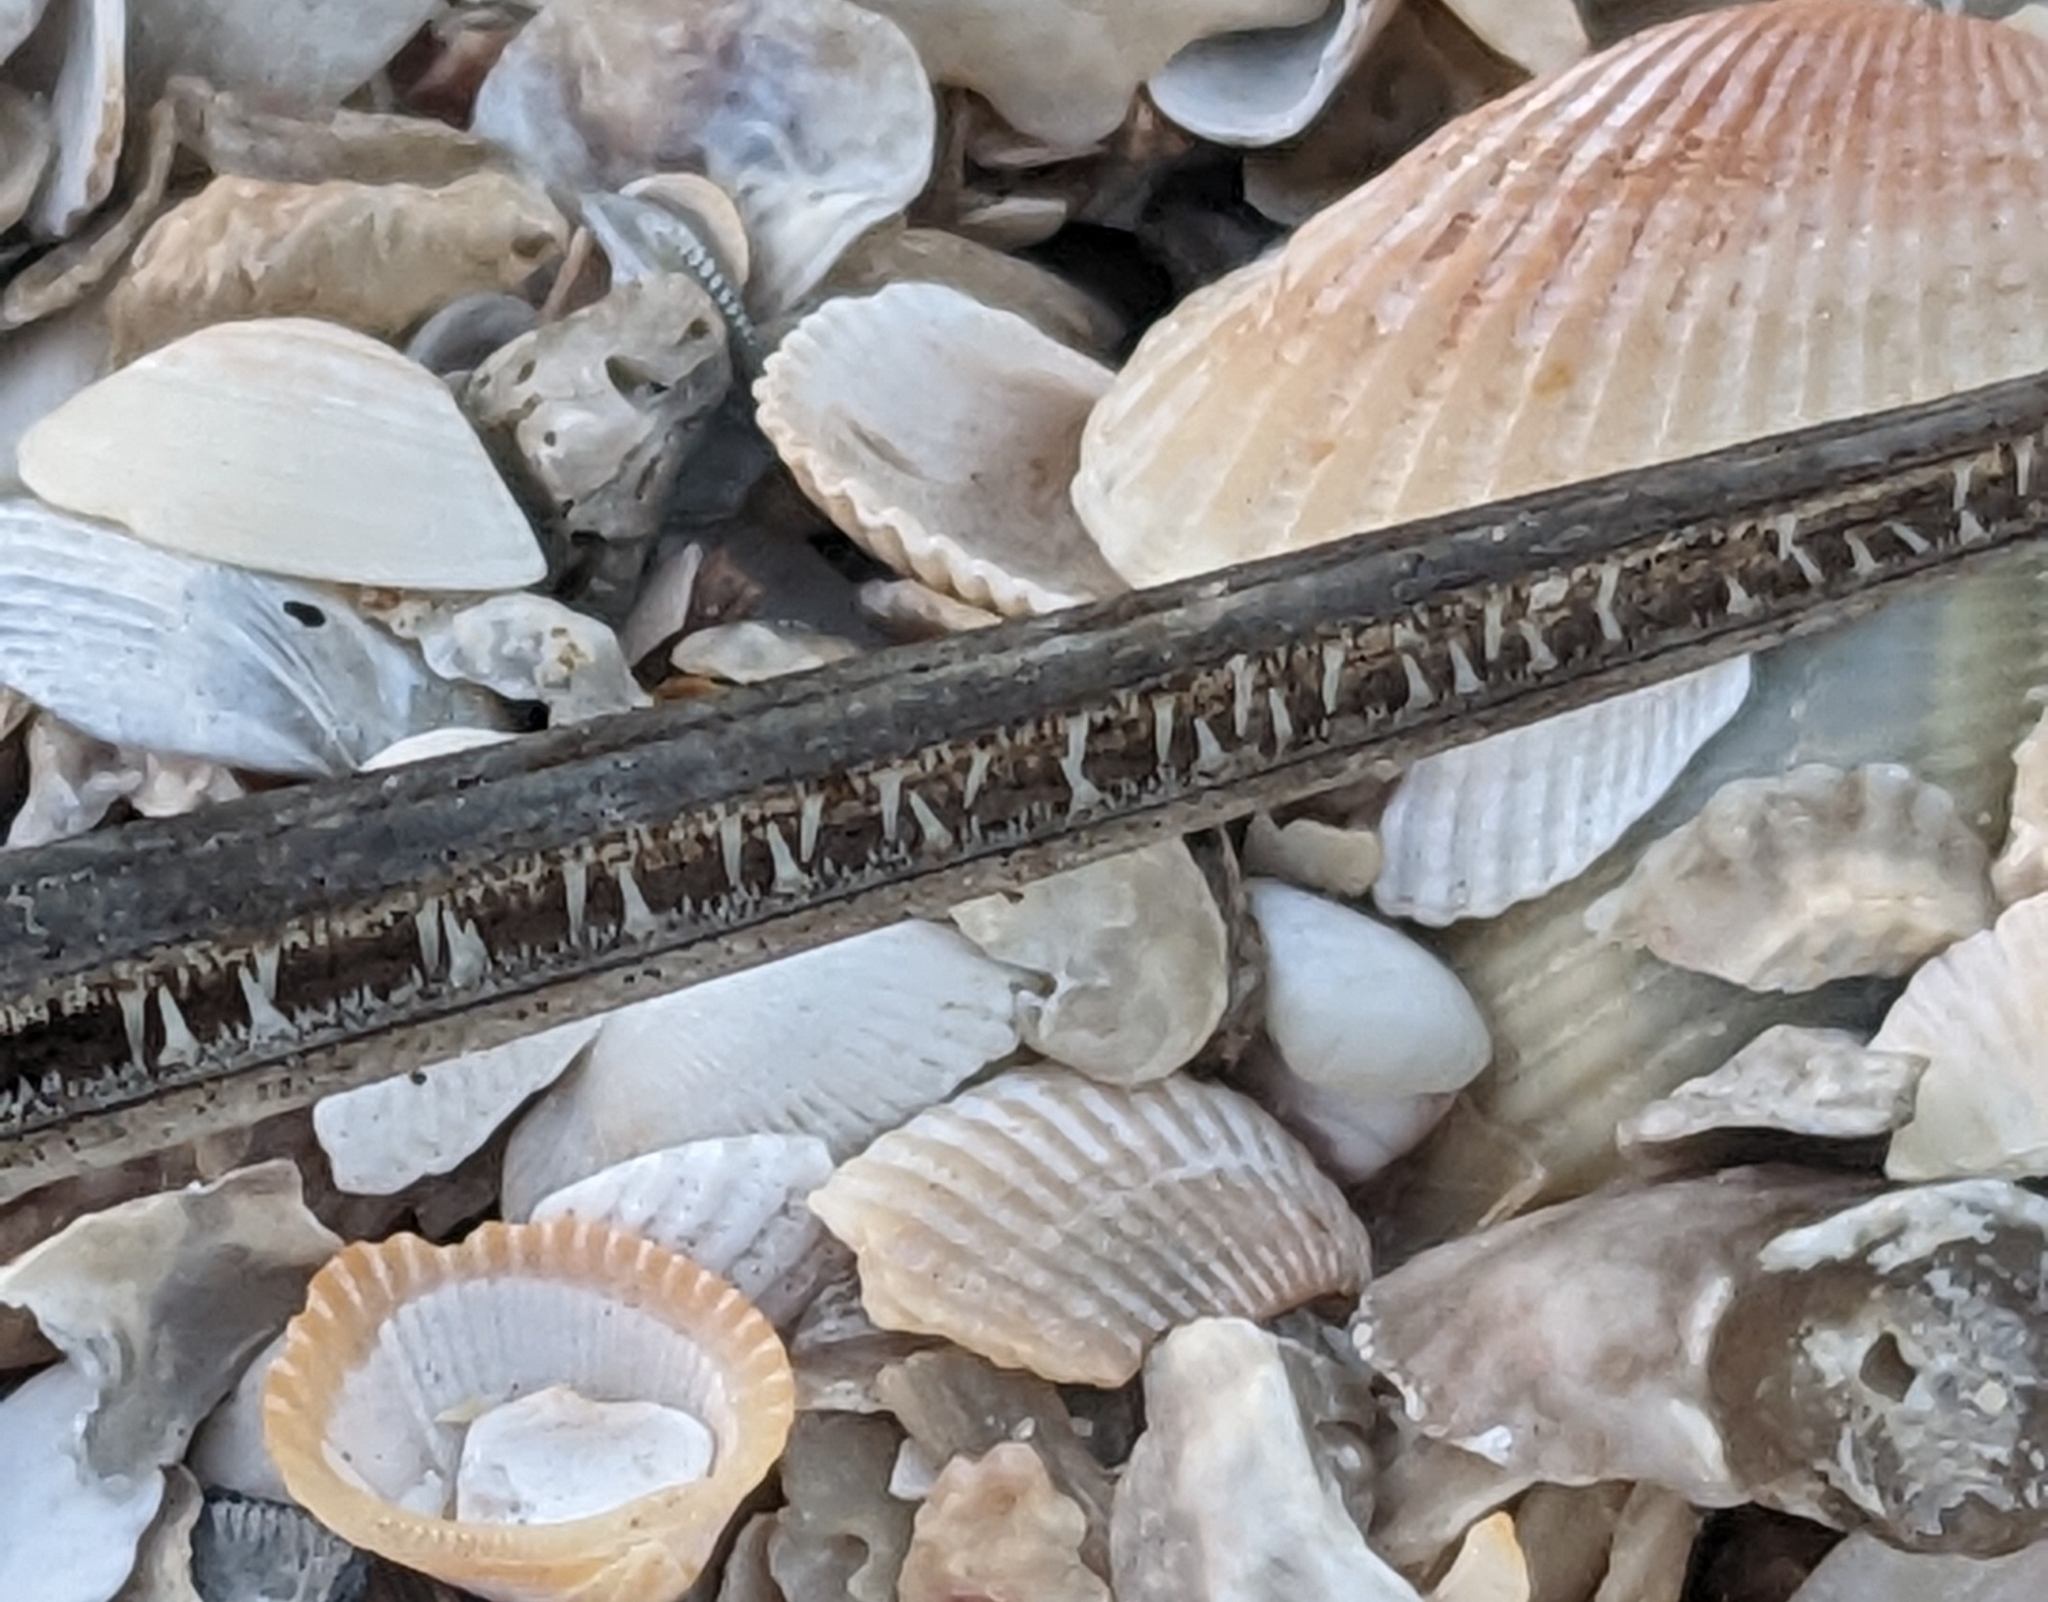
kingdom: Animalia
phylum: Chordata
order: Beloniformes
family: Belonidae
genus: Strongylura
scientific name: Strongylura marina
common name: Atlantic needlefish
